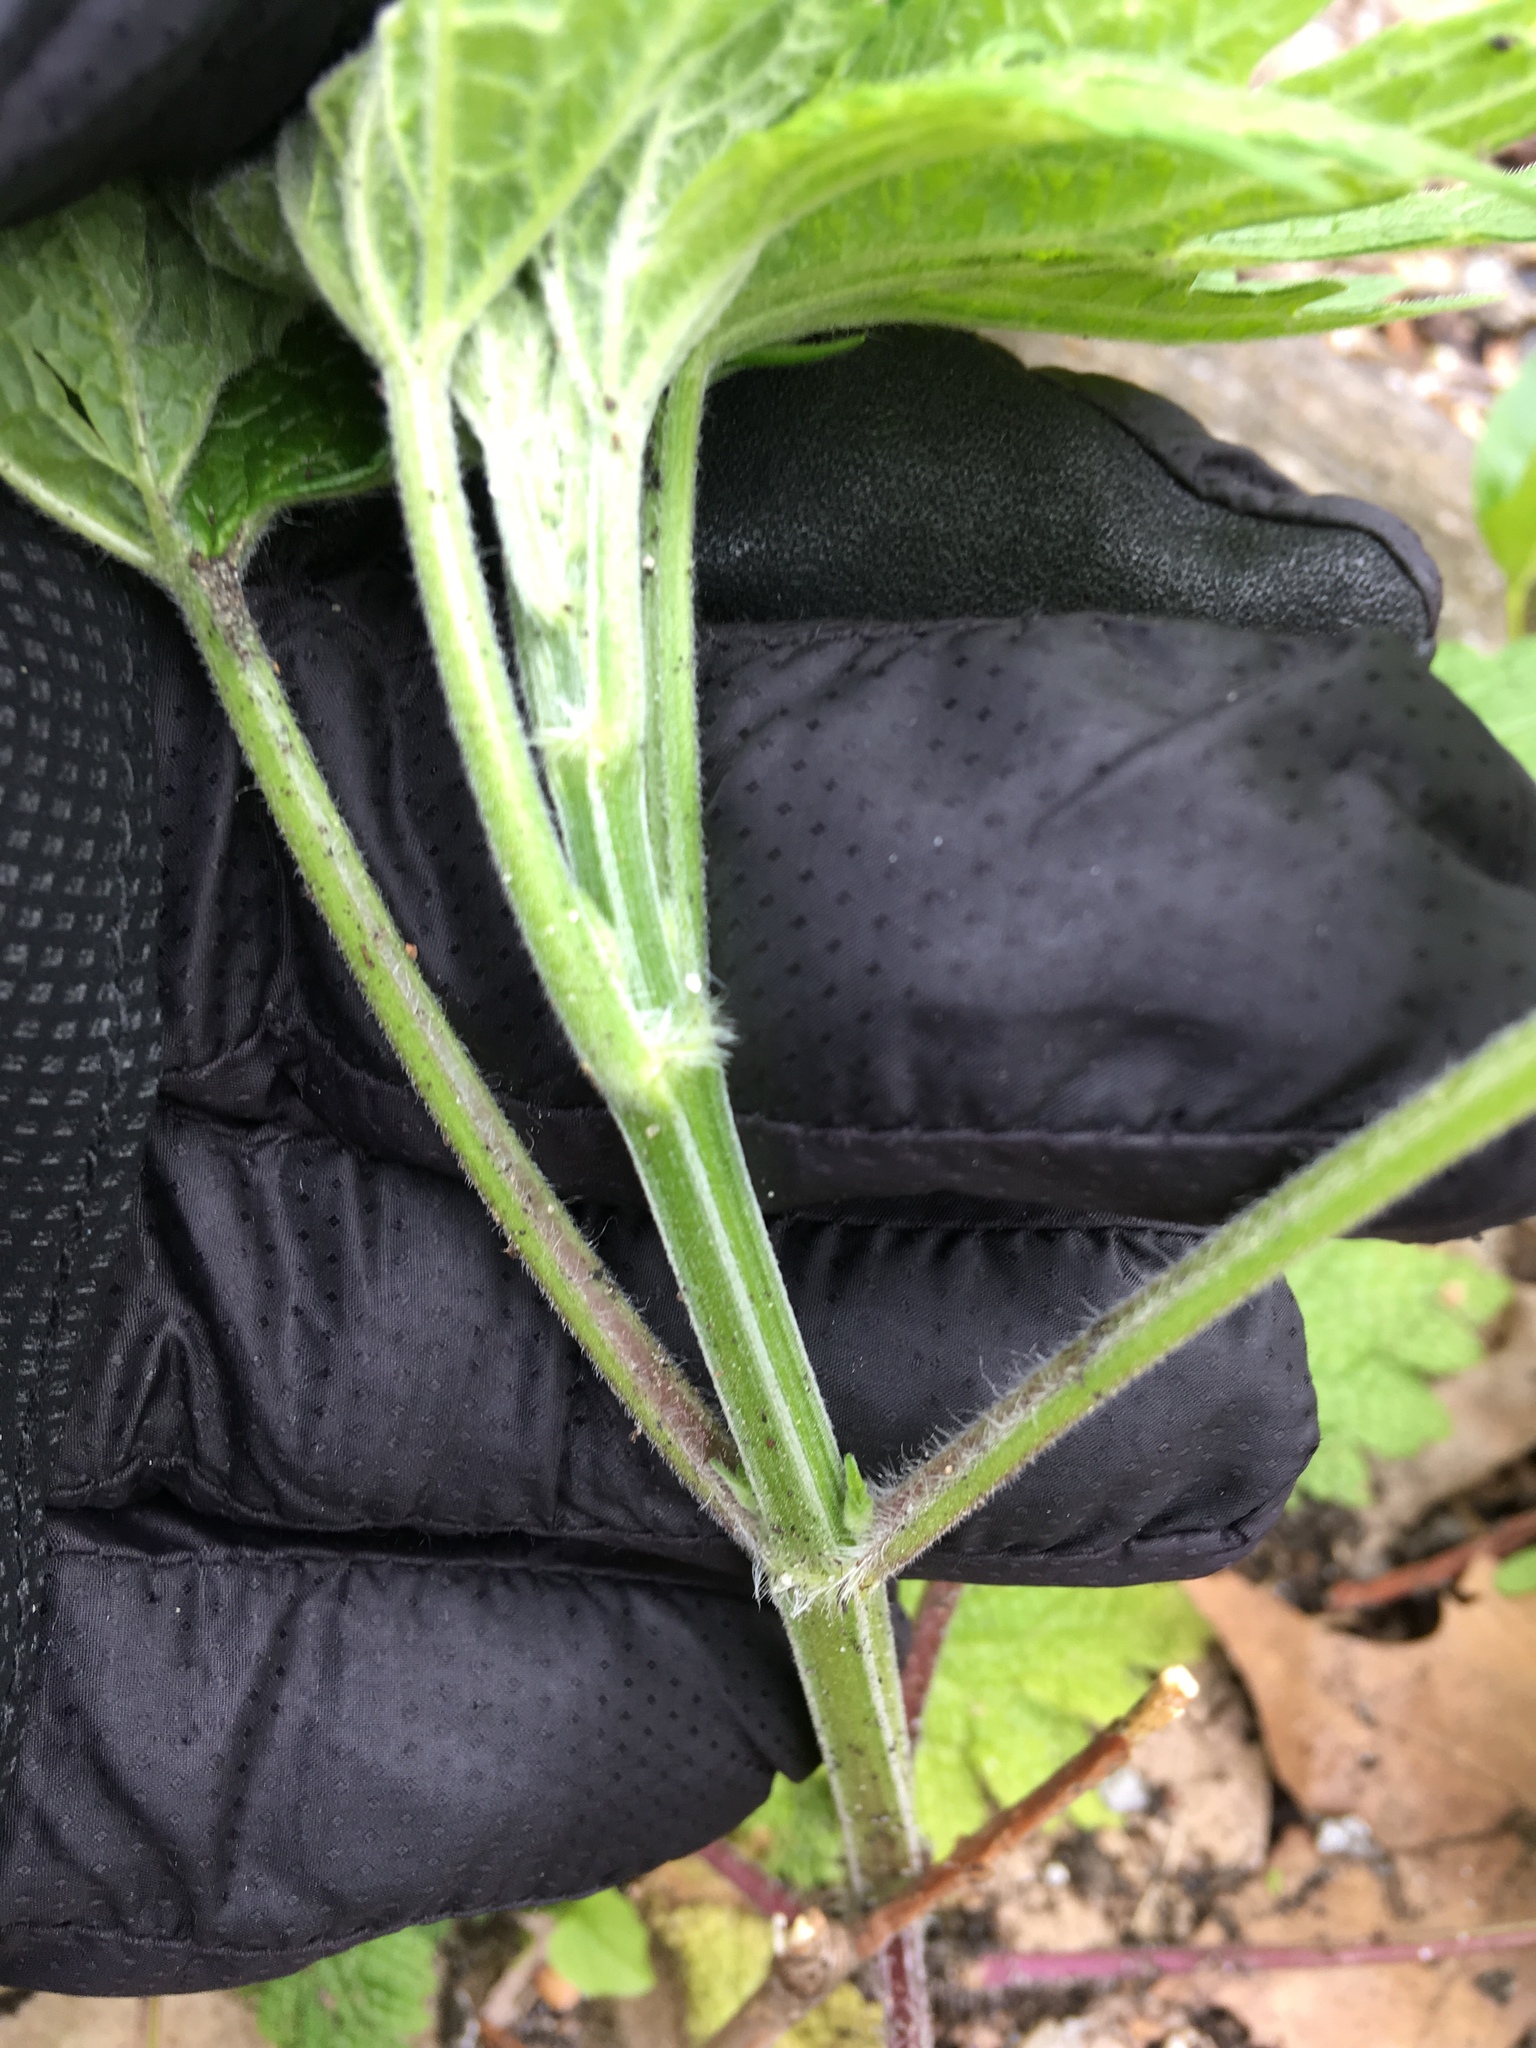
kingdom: Plantae
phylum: Tracheophyta
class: Magnoliopsida
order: Lamiales
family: Lamiaceae
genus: Leonurus
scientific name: Leonurus cardiaca
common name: Motherwort
